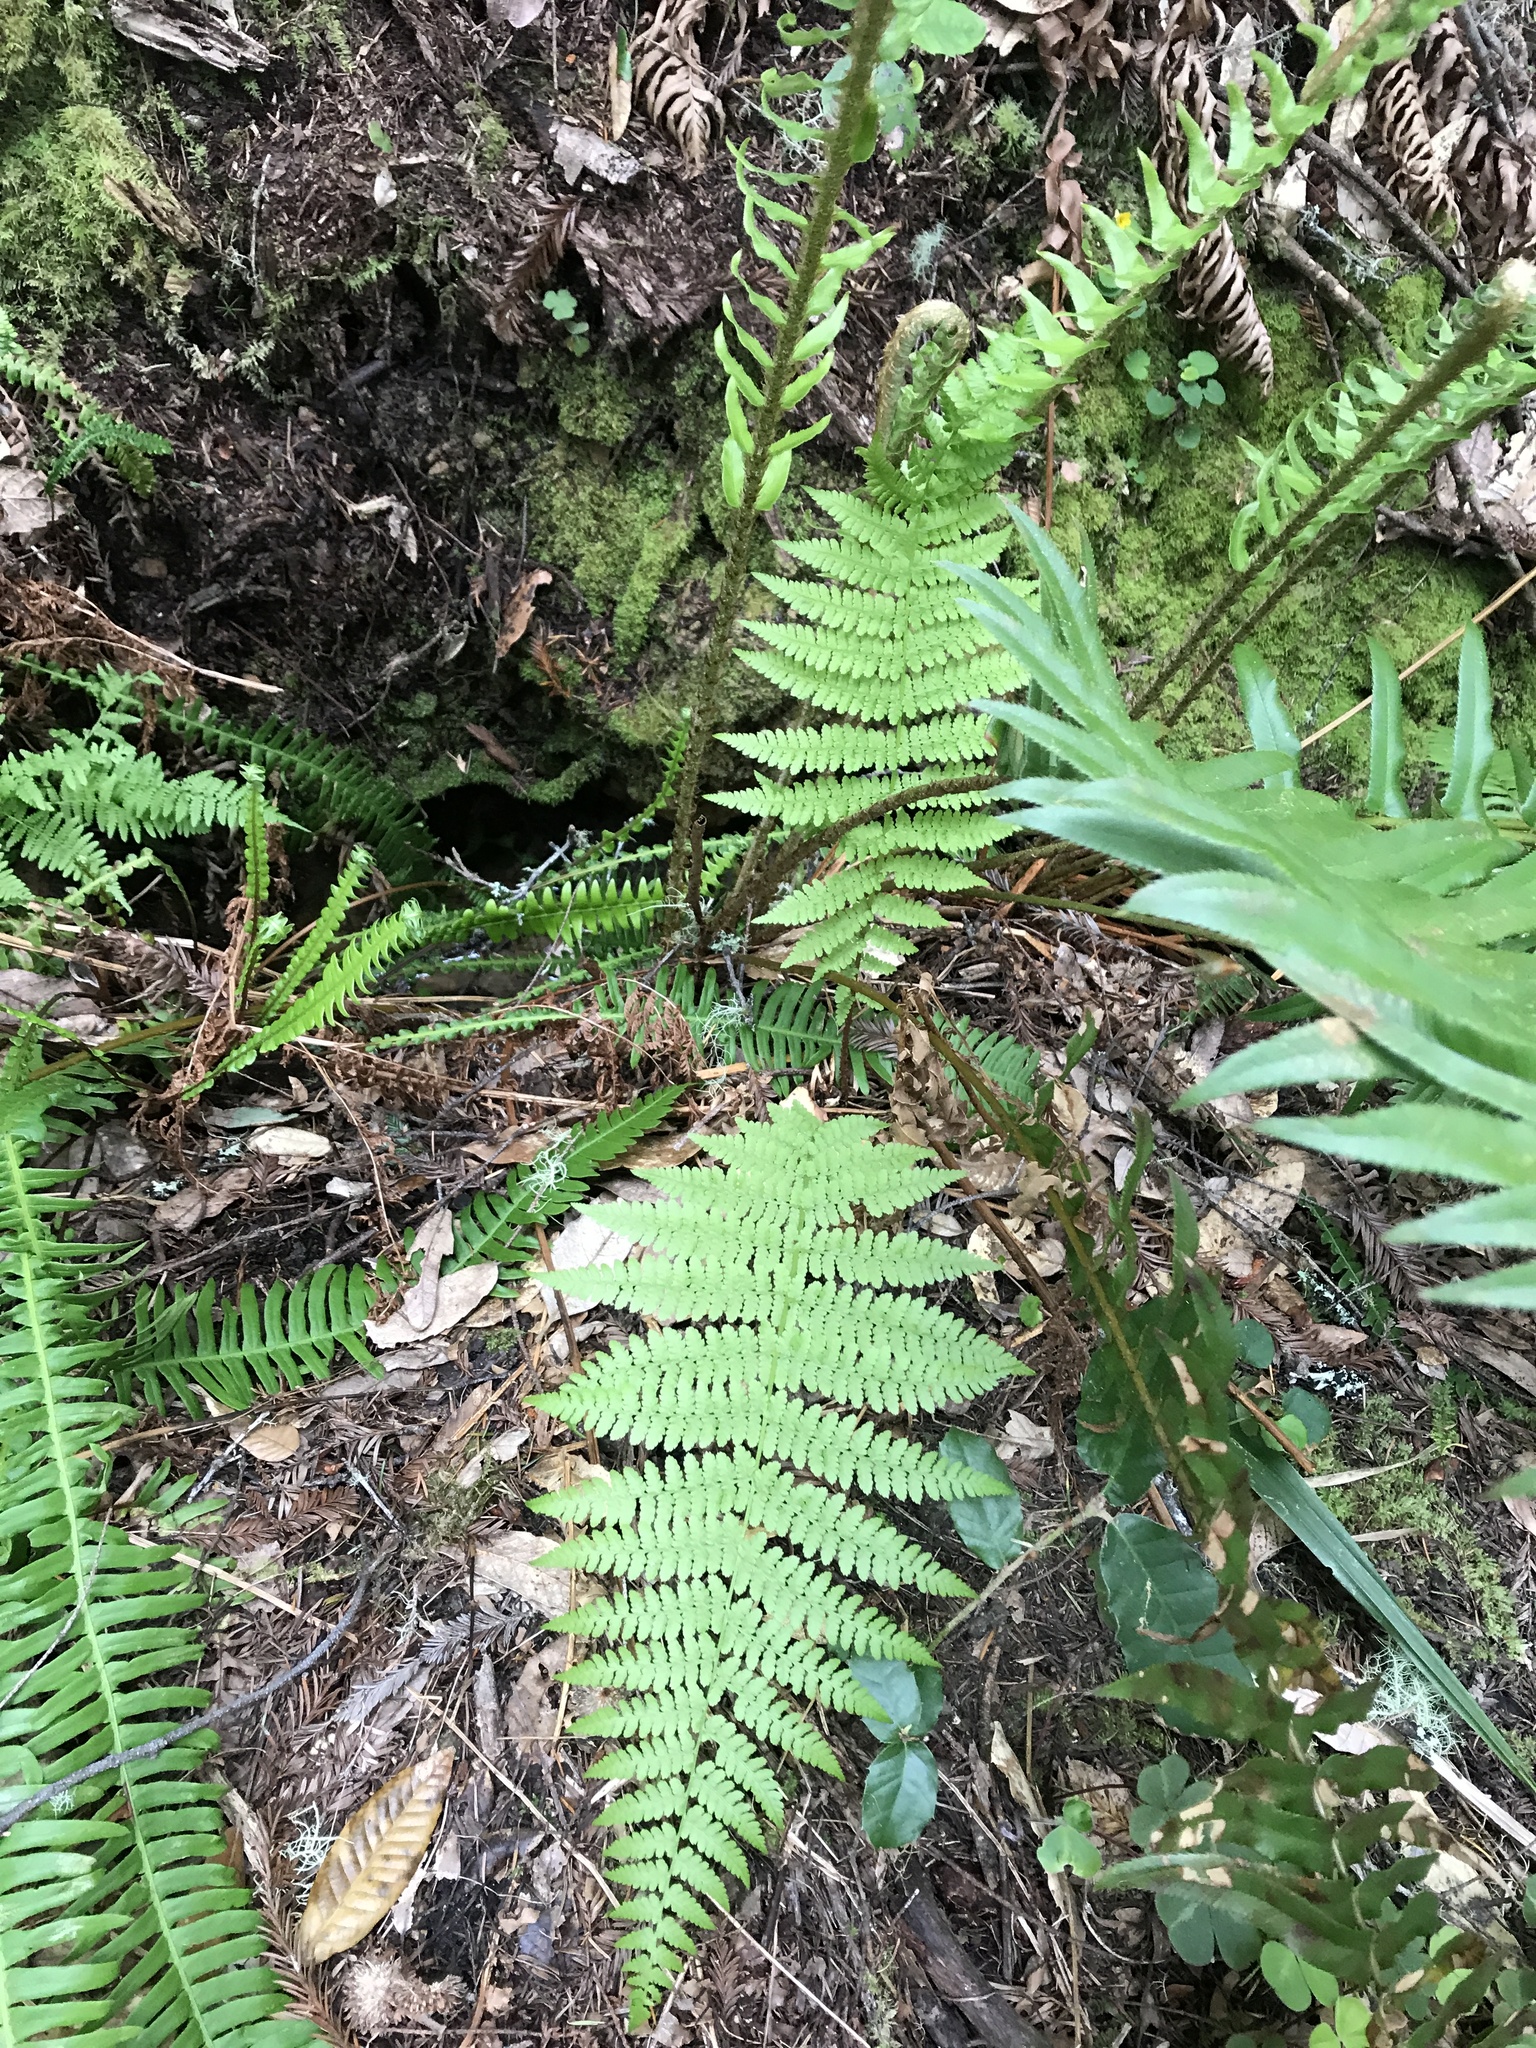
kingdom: Plantae
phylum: Tracheophyta
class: Polypodiopsida
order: Polypodiales
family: Athyriaceae
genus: Athyrium
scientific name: Athyrium filix-femina
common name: Lady fern
